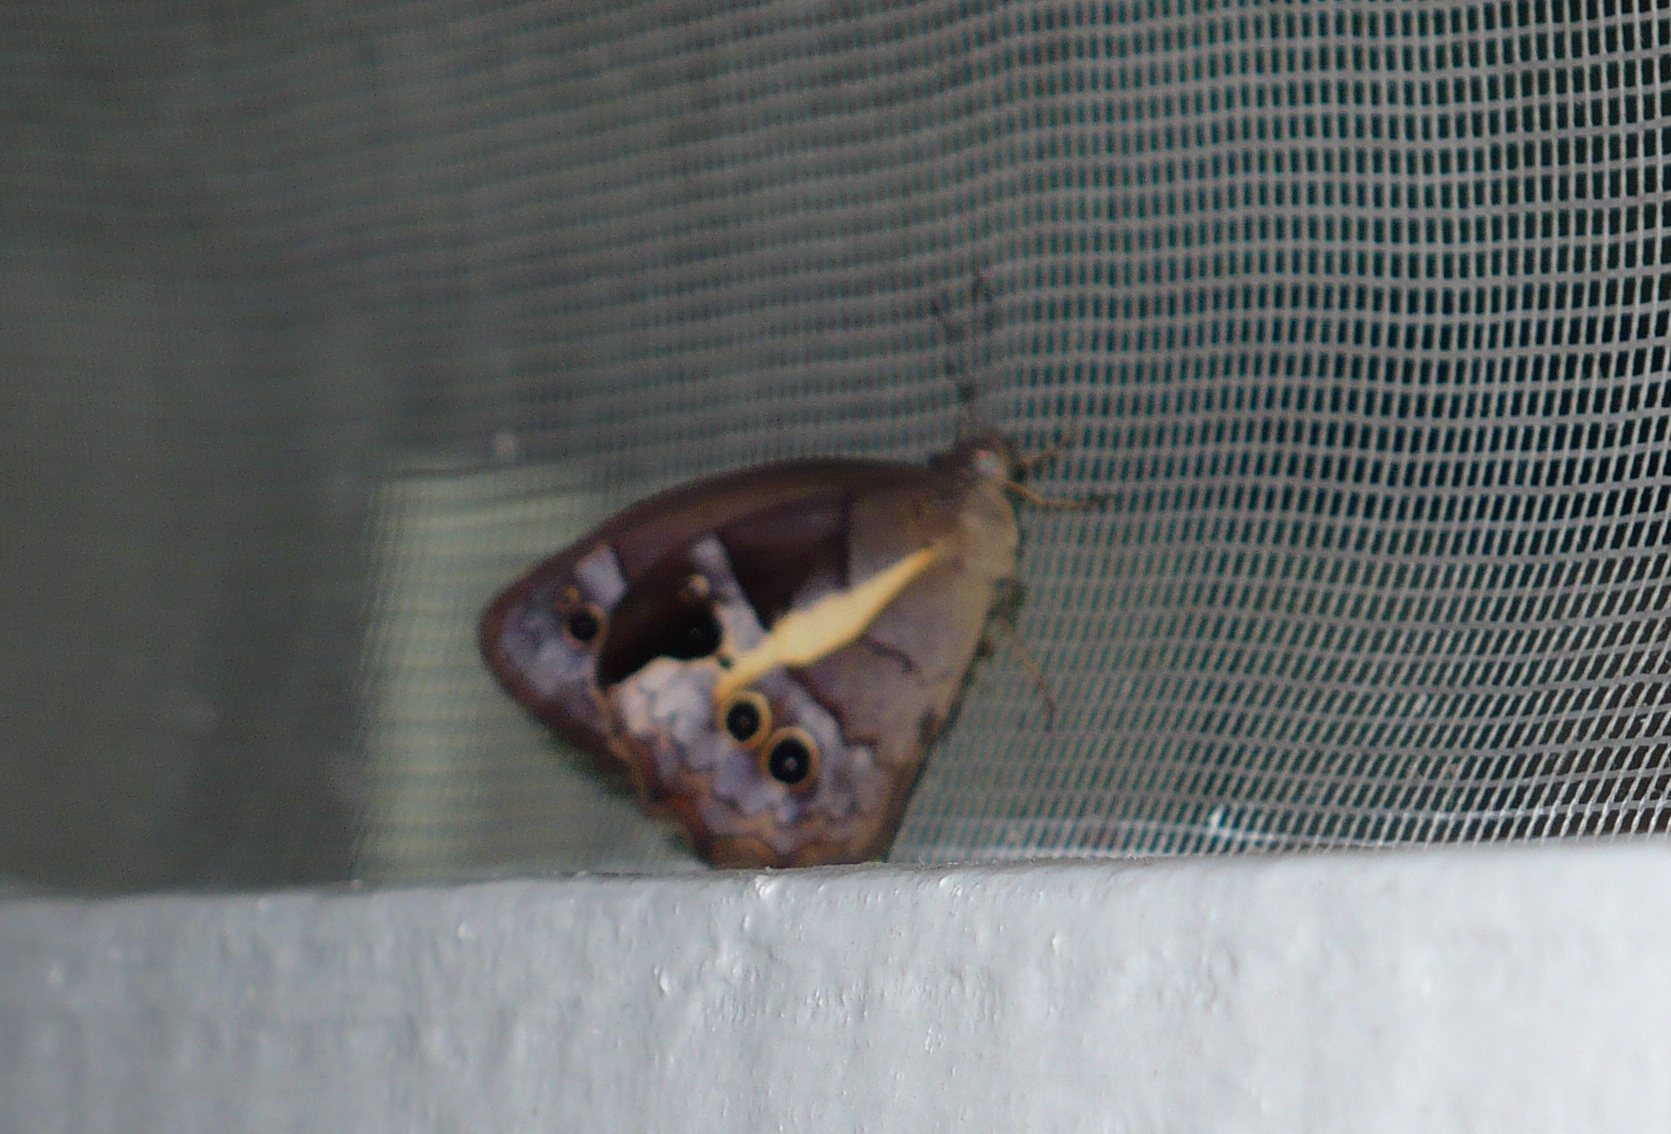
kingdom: Animalia
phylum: Arthropoda
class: Insecta
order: Lepidoptera
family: Nymphalidae
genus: Posttaygetis
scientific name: Posttaygetis penelea
